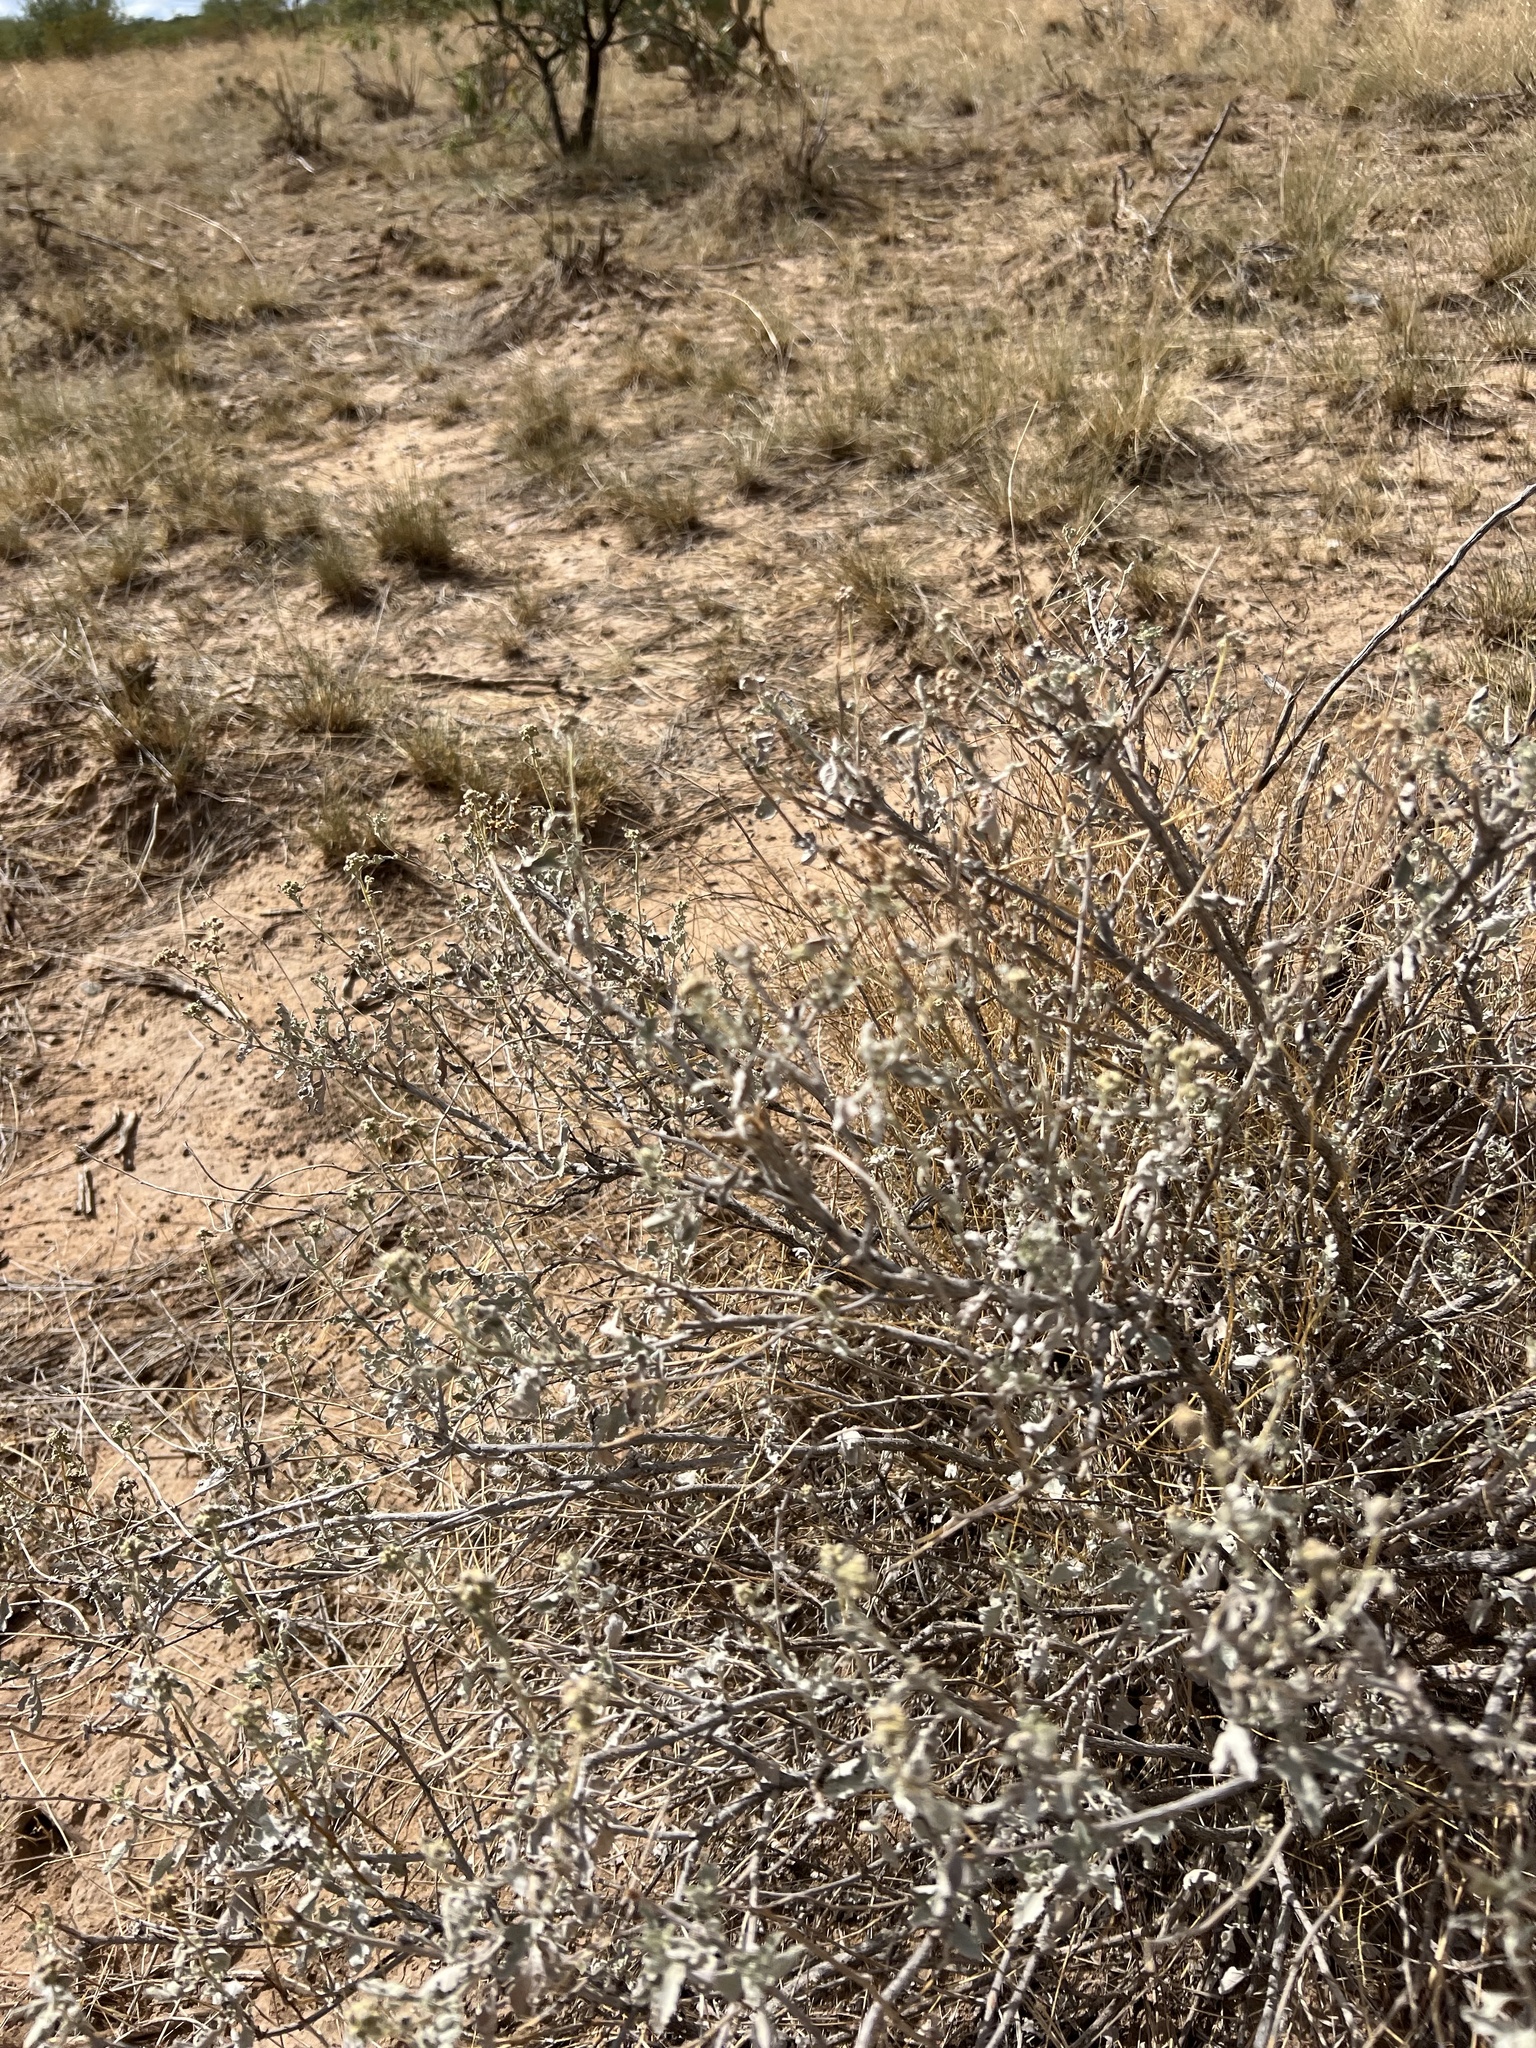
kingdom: Plantae
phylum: Tracheophyta
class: Magnoliopsida
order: Asterales
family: Asteraceae
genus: Parthenium
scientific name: Parthenium incanum
